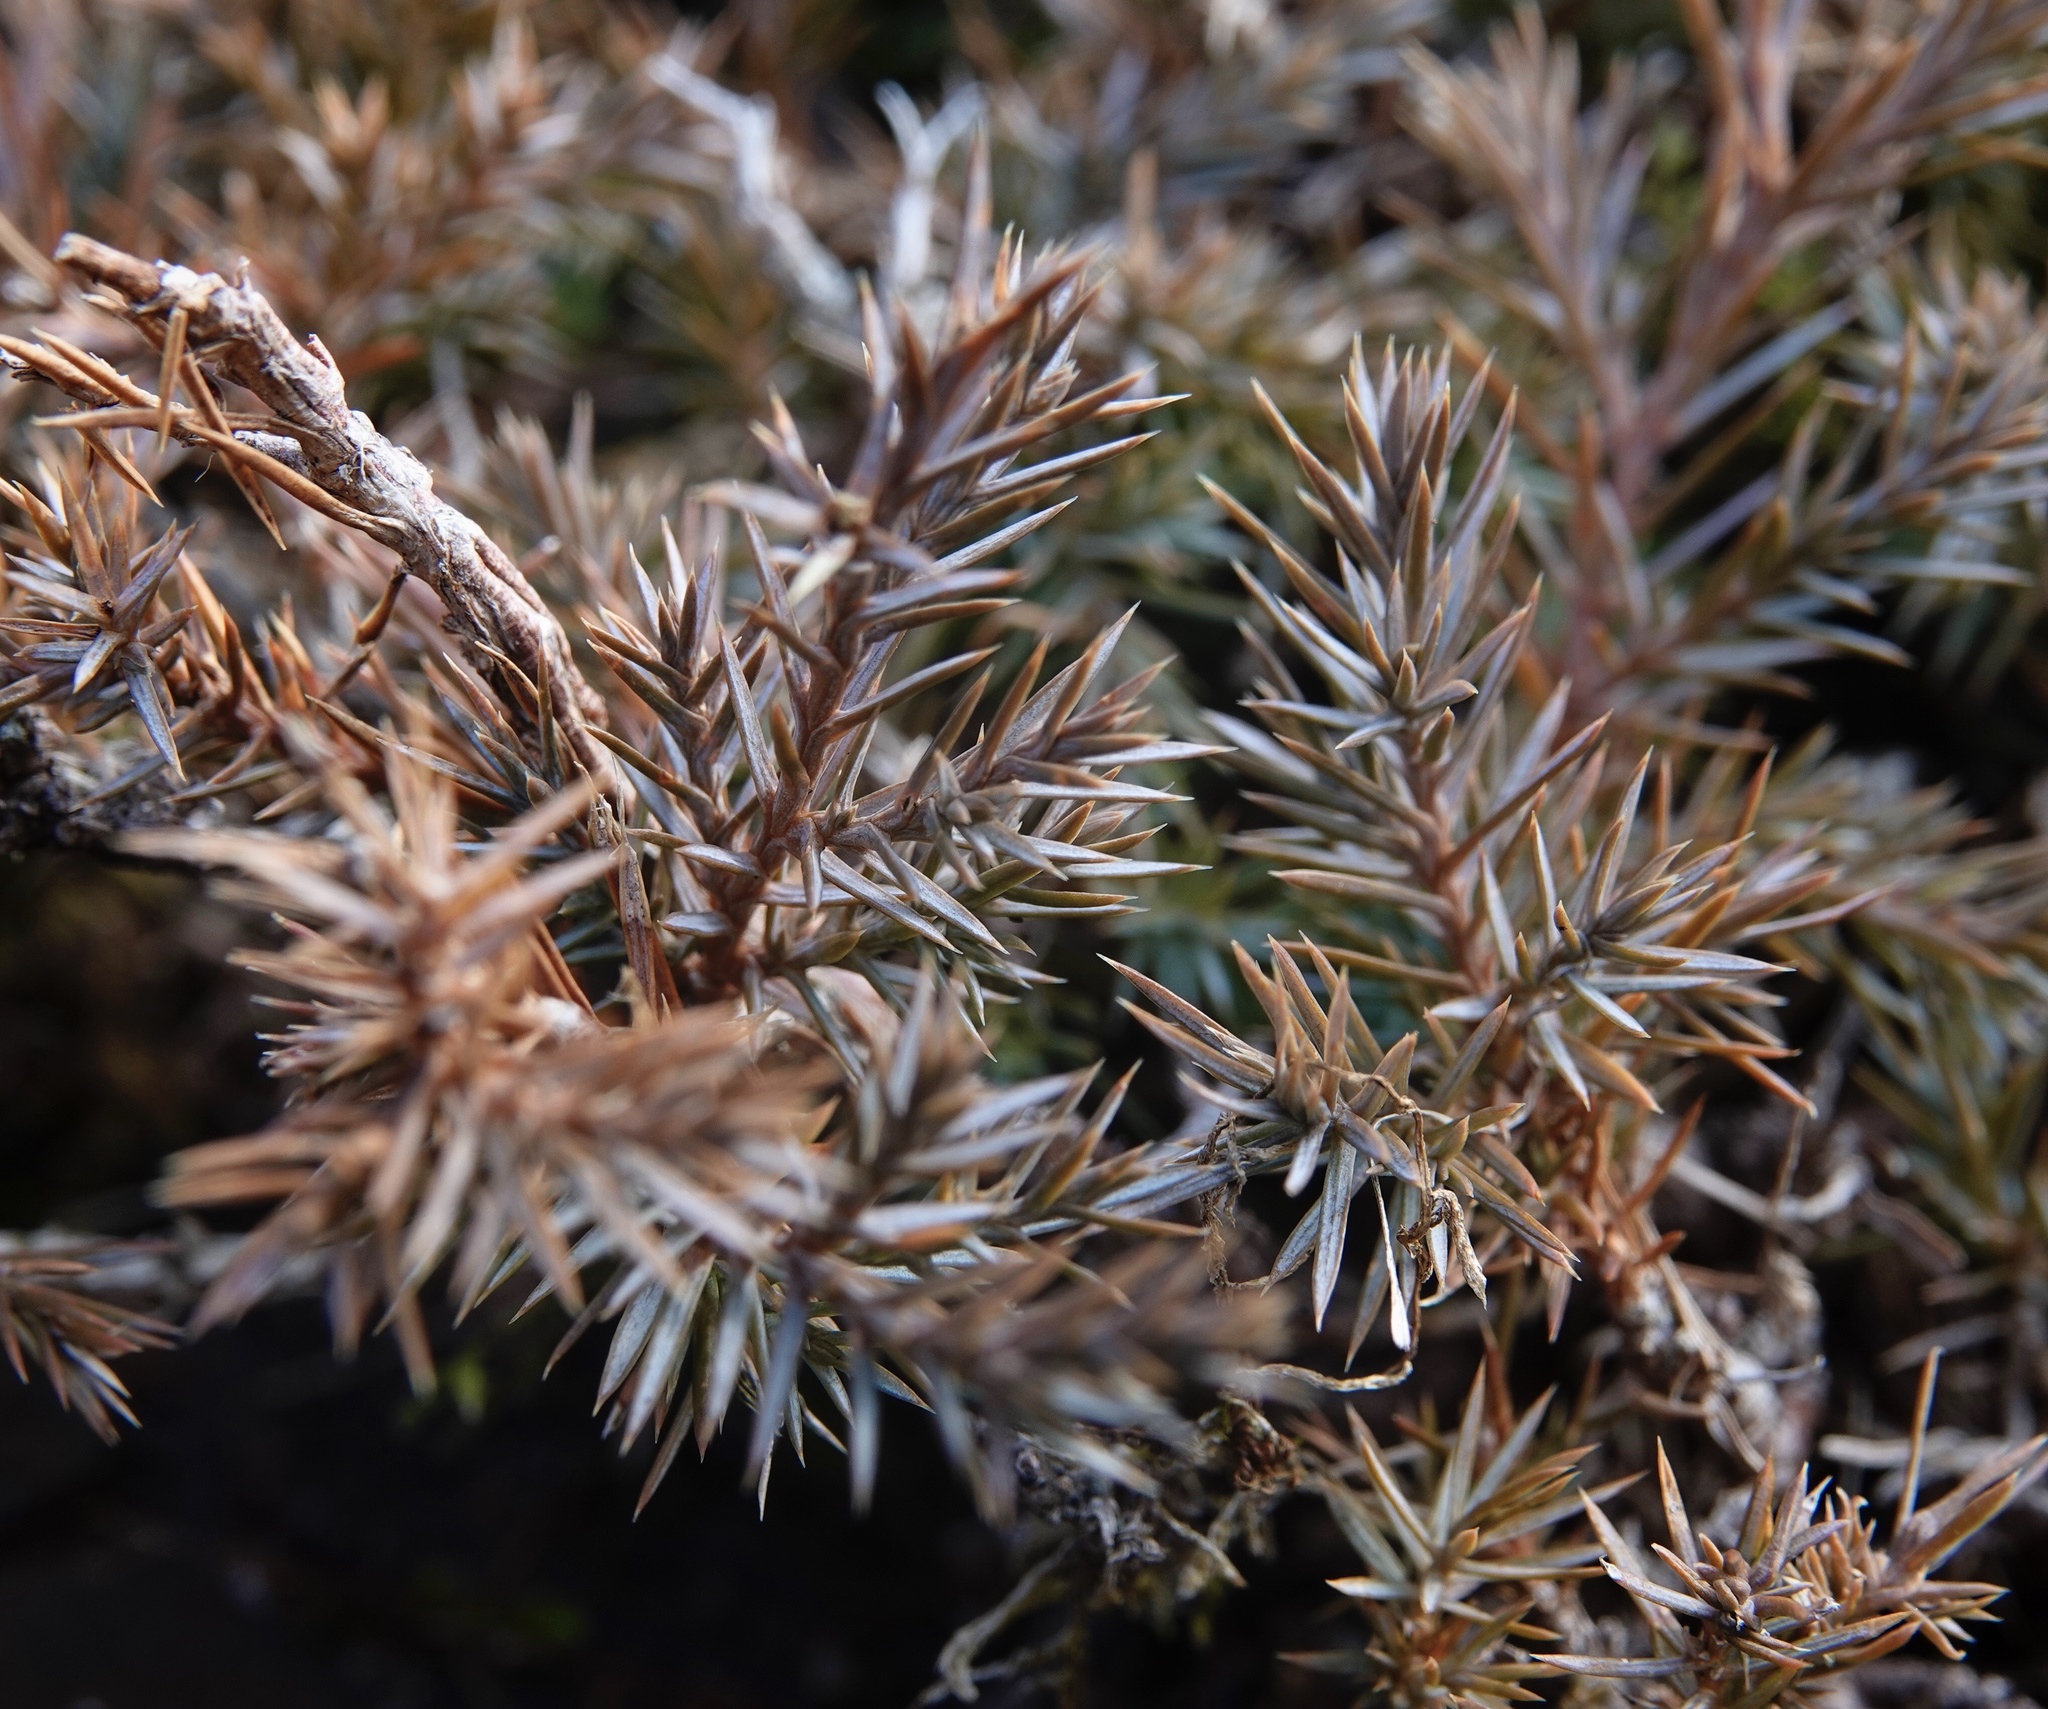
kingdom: Plantae
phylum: Tracheophyta
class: Pinopsida
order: Pinales
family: Cupressaceae
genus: Juniperus
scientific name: Juniperus virginiana
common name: Red juniper
